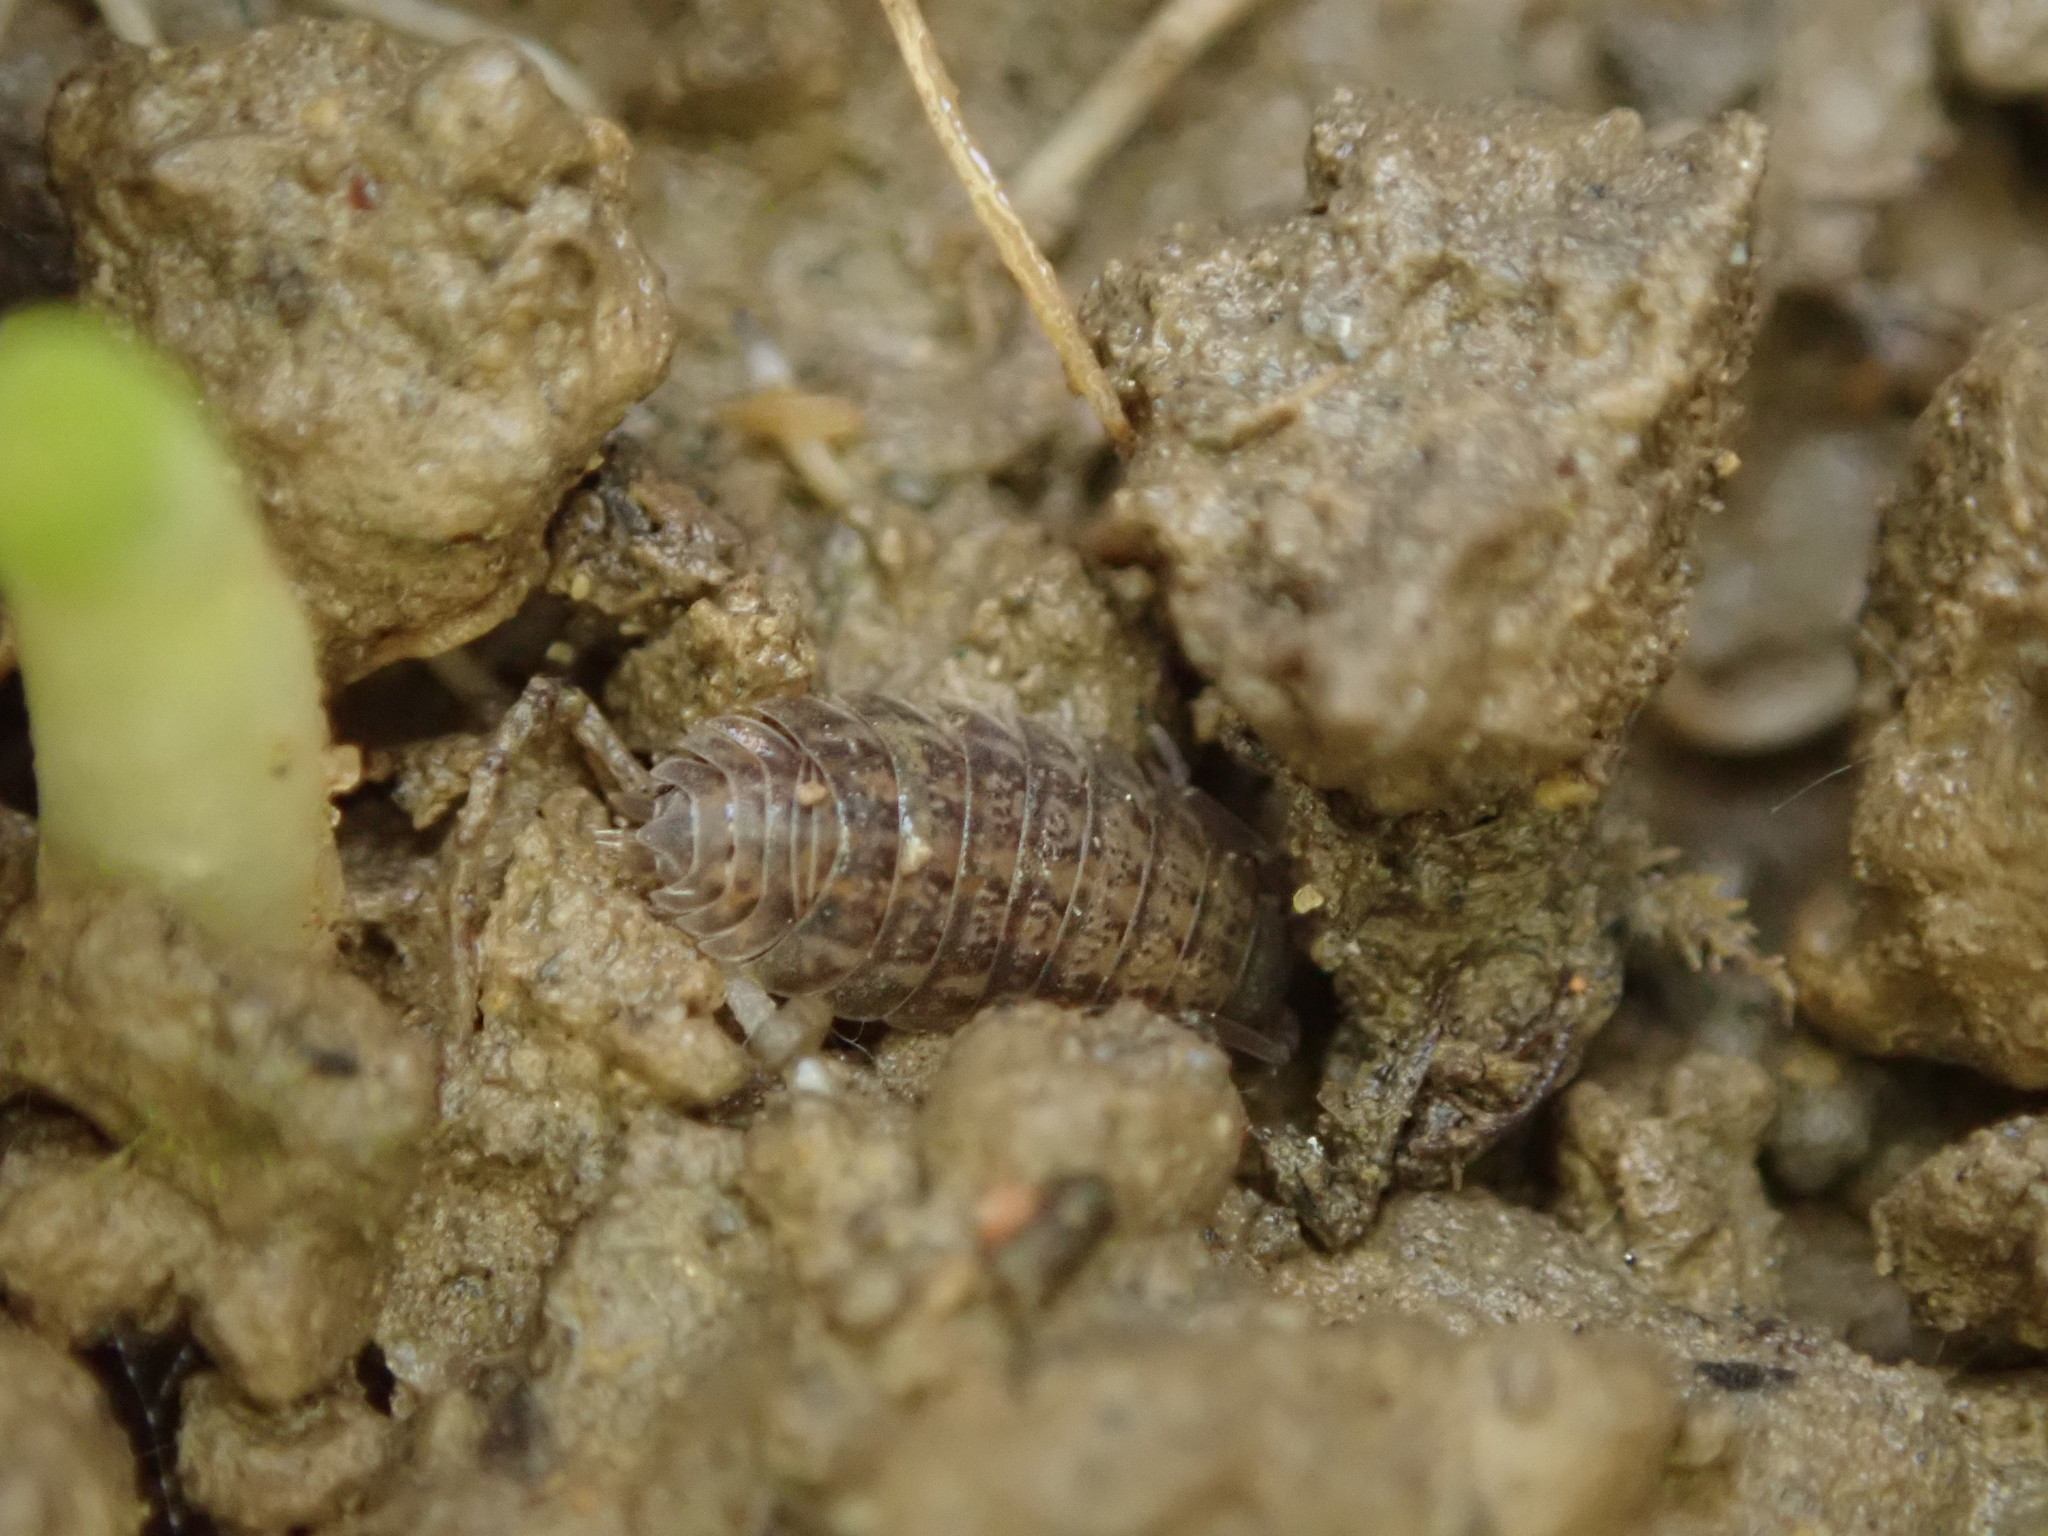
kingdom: Animalia
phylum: Arthropoda
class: Malacostraca
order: Isopoda
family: Trachelipodidae
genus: Trachelipus
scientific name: Trachelipus rathkii
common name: Isopod
